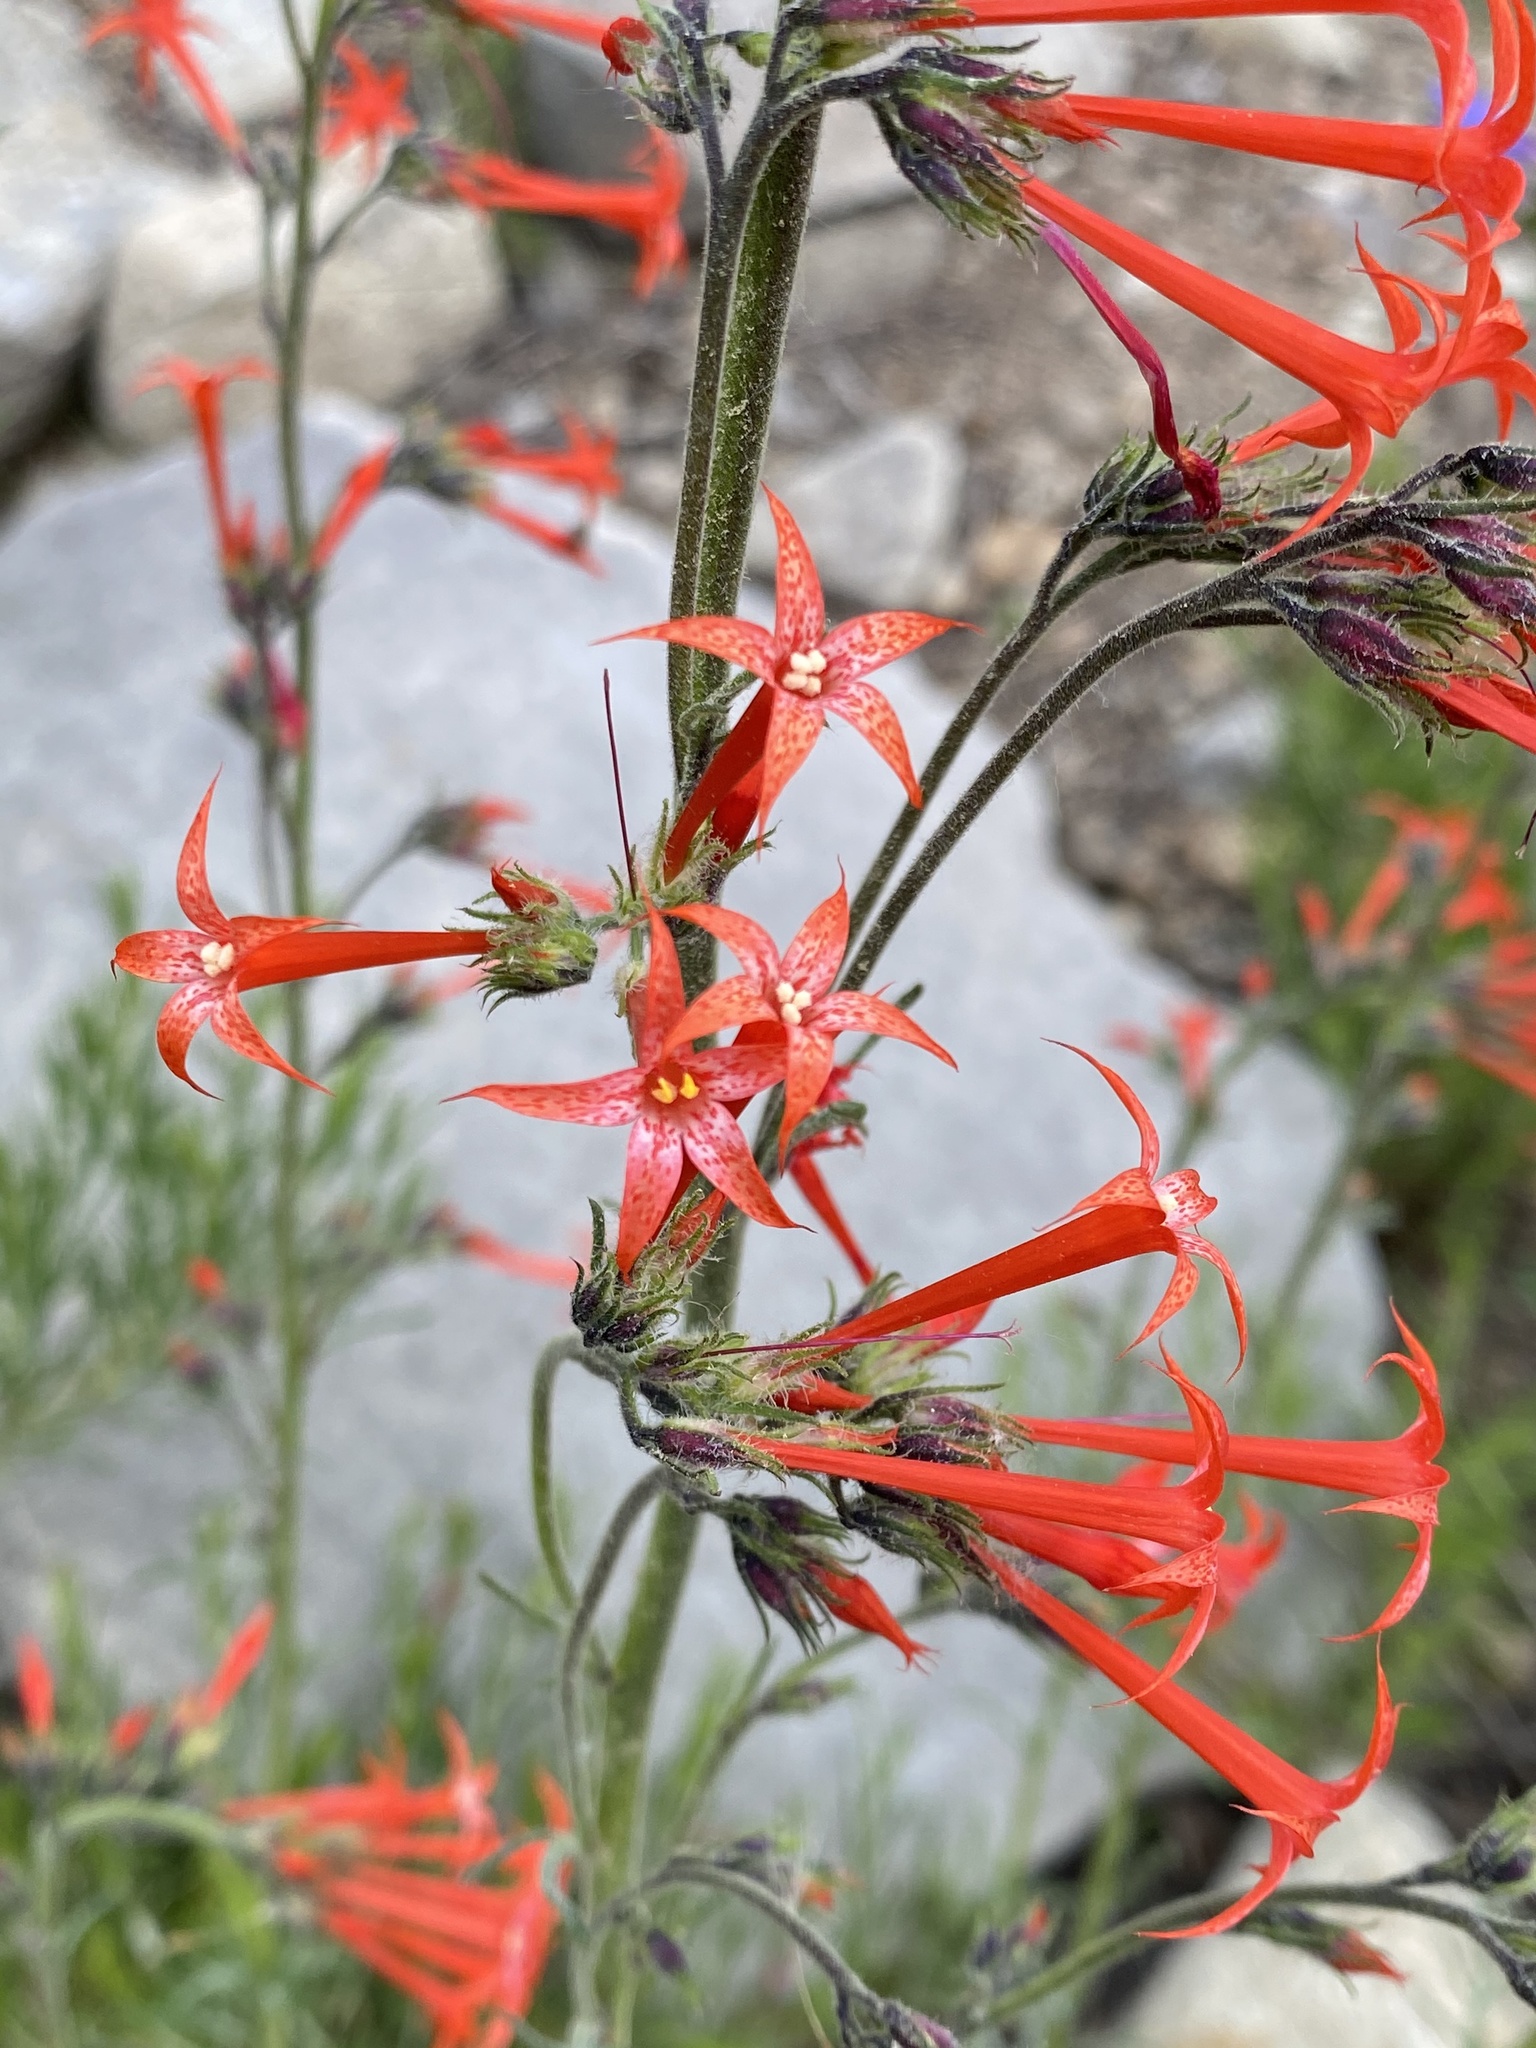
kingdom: Plantae
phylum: Tracheophyta
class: Magnoliopsida
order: Ericales
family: Polemoniaceae
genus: Ipomopsis
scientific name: Ipomopsis aggregata
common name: Scarlet gilia
